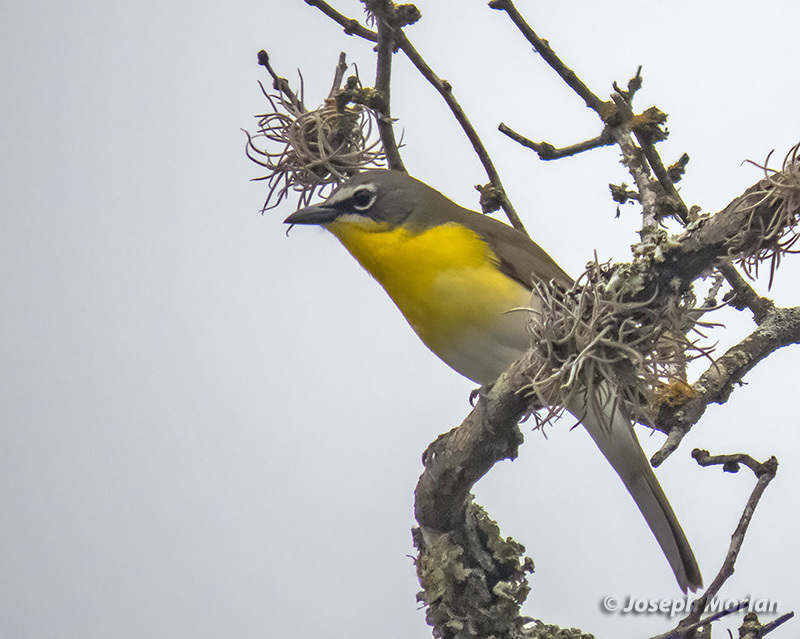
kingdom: Animalia
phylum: Chordata
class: Aves
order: Passeriformes
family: Parulidae
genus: Icteria
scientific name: Icteria virens
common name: Yellow-breasted chat
